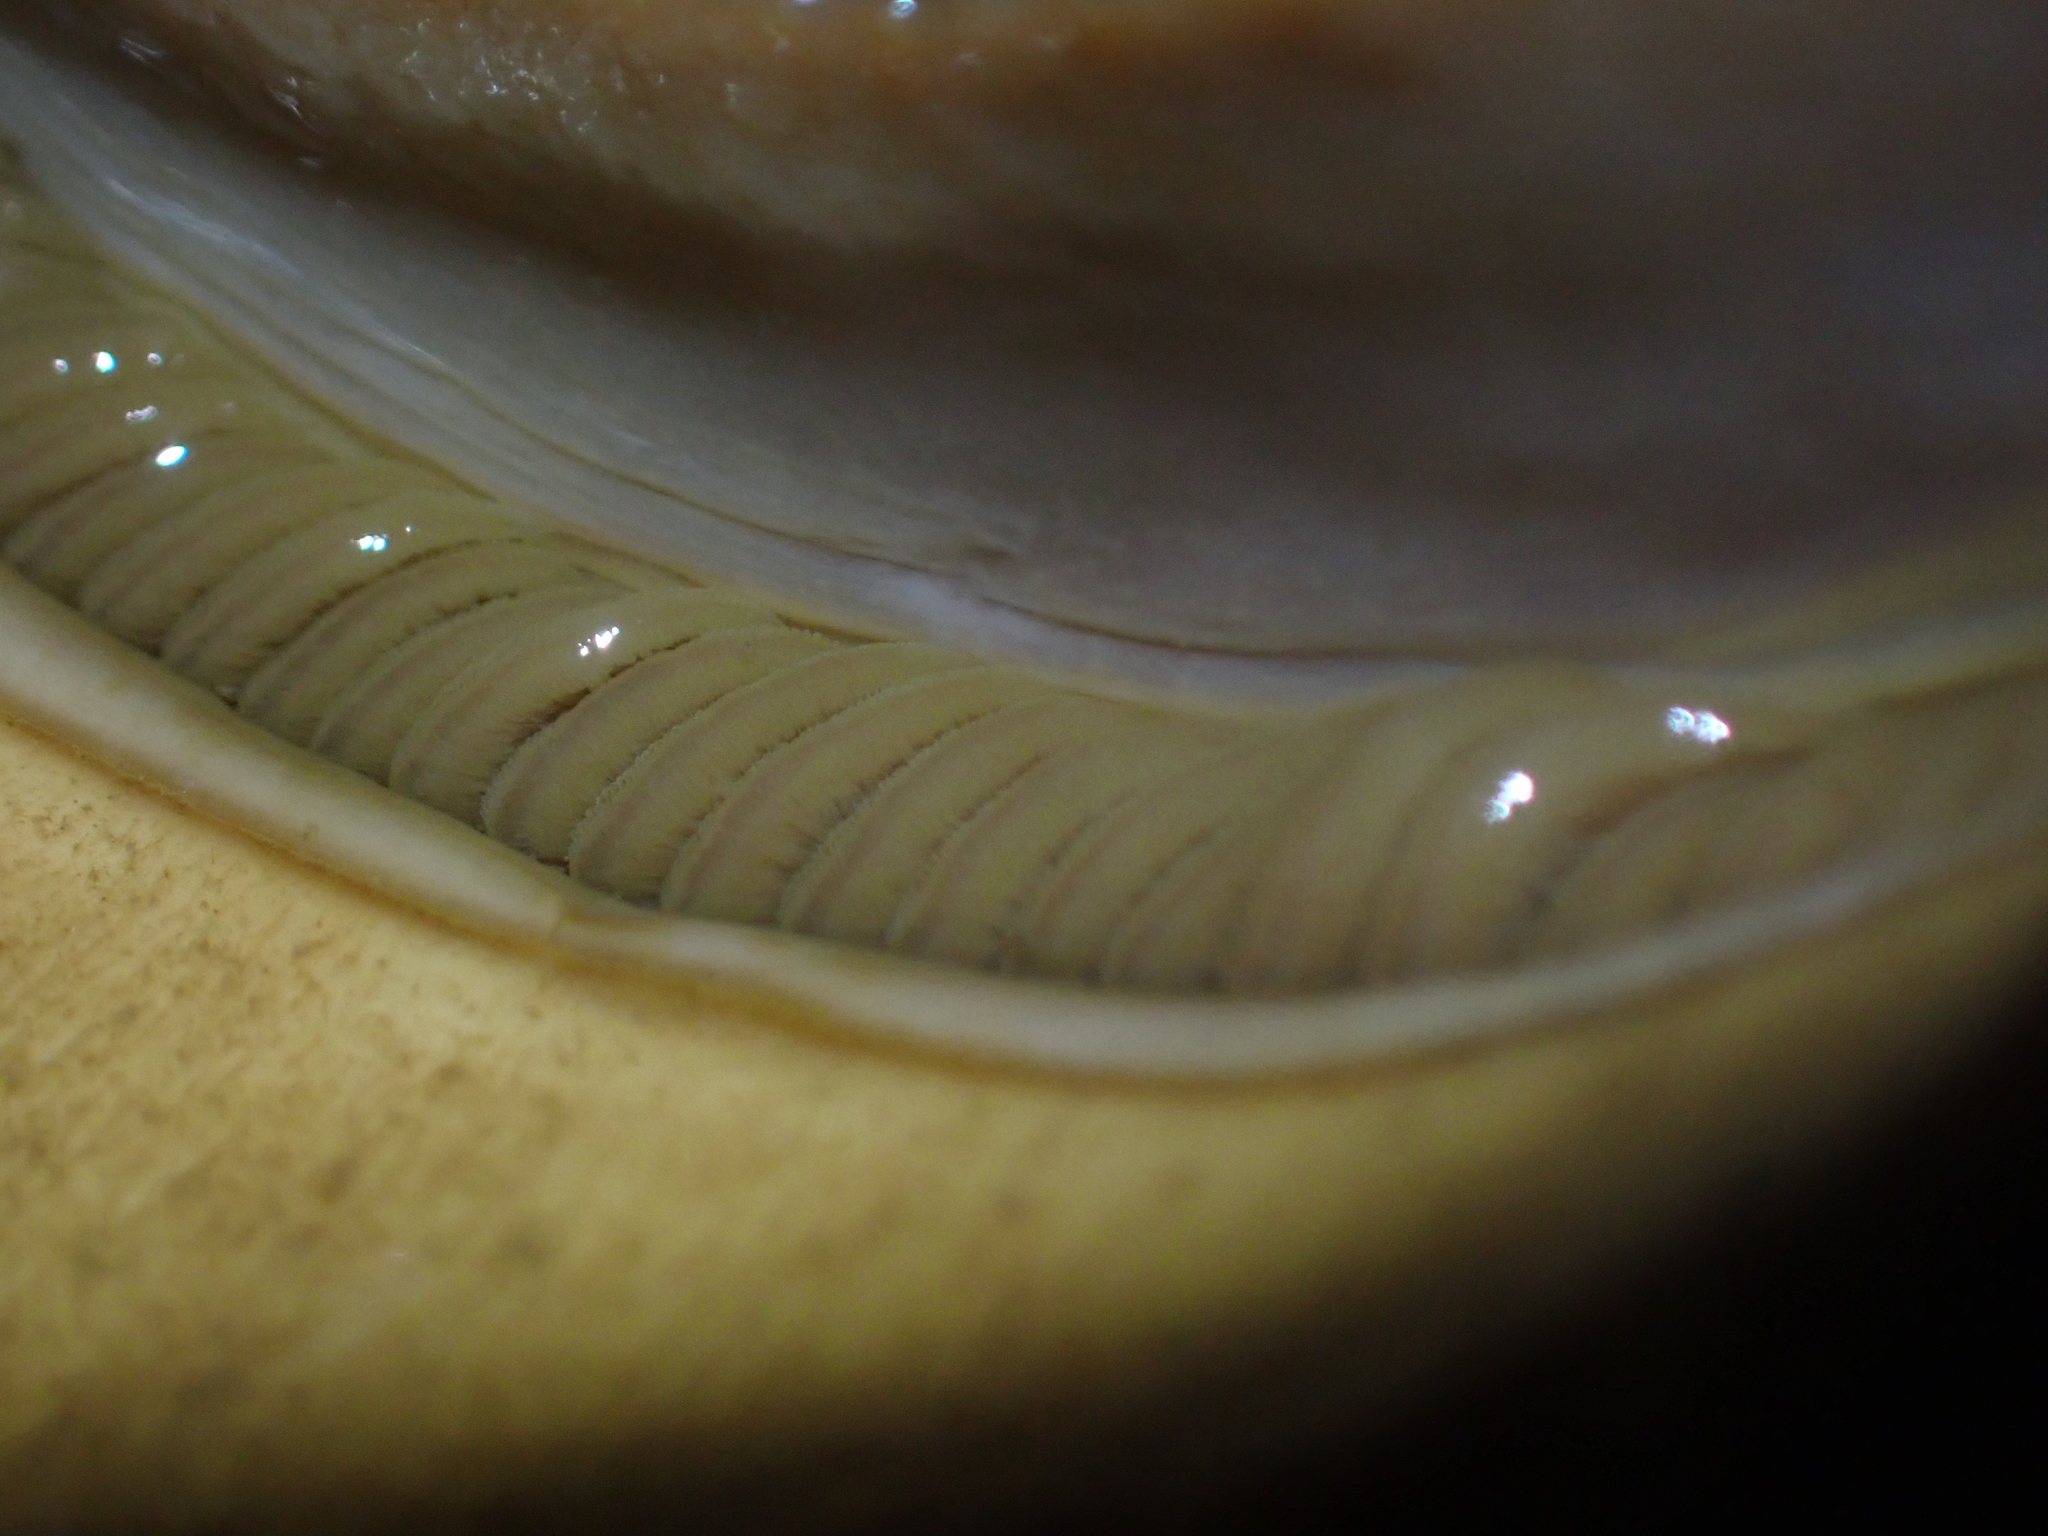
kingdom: Animalia
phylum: Mollusca
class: Polyplacophora
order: Chitonida
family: Acanthochitonidae
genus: Cryptochiton
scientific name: Cryptochiton stelleri
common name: Giant pacific chiton
